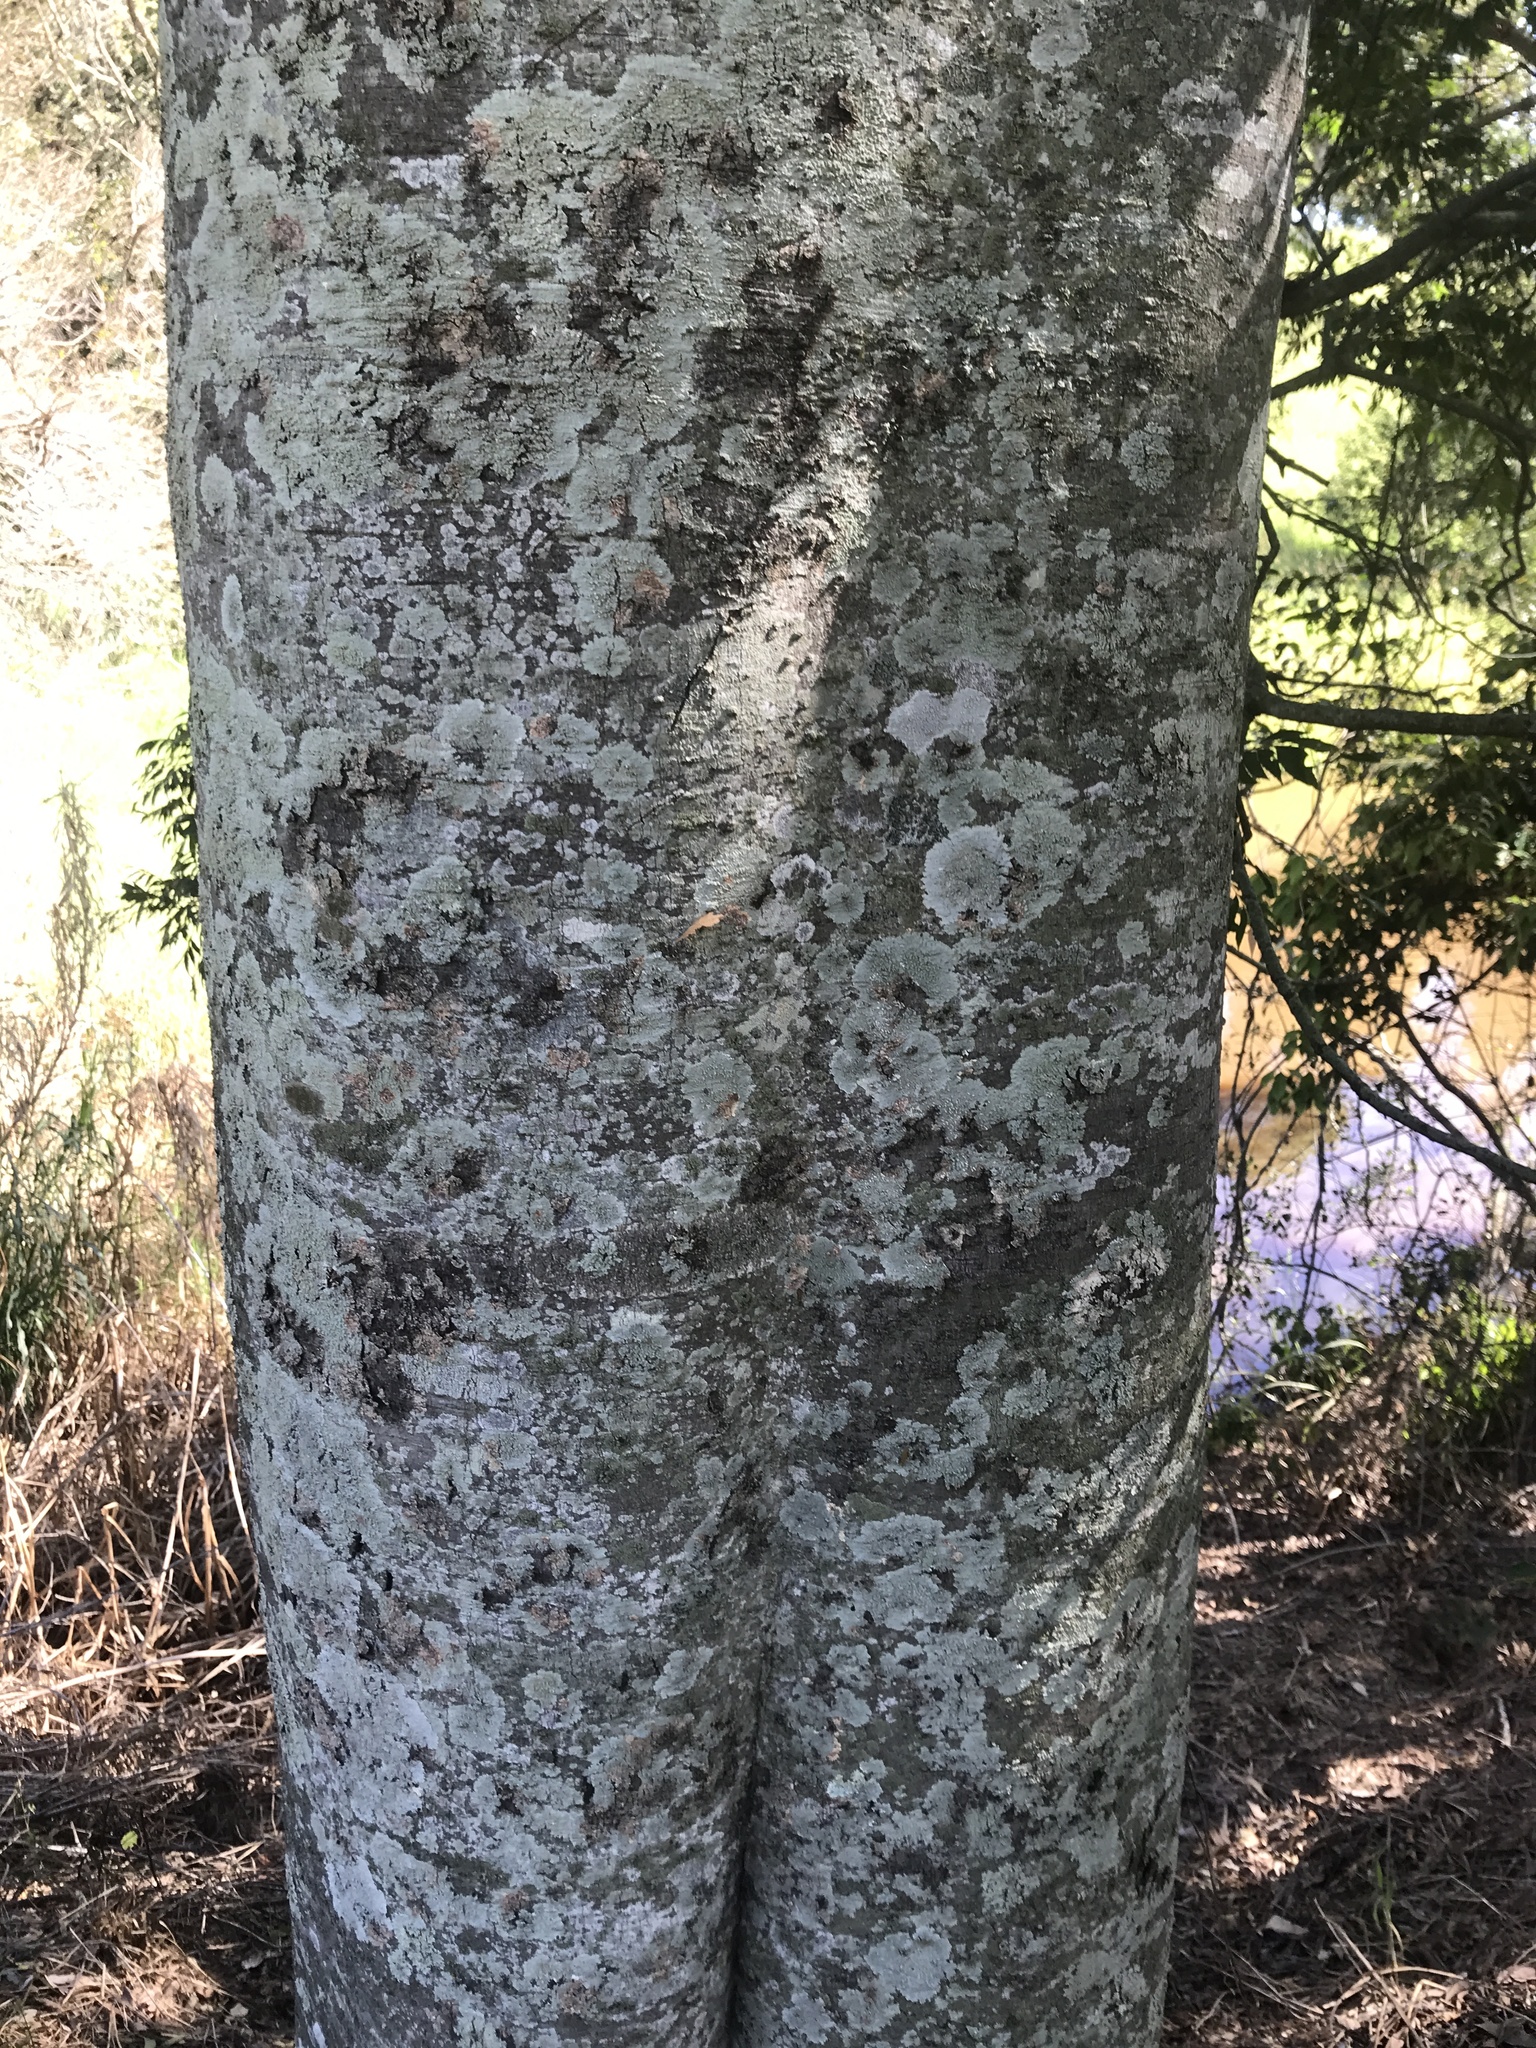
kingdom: Plantae
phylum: Tracheophyta
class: Magnoliopsida
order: Sapindales
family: Sapindaceae
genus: Jagera
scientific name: Jagera pseudorhus
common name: Fern-leaf-tamarind
